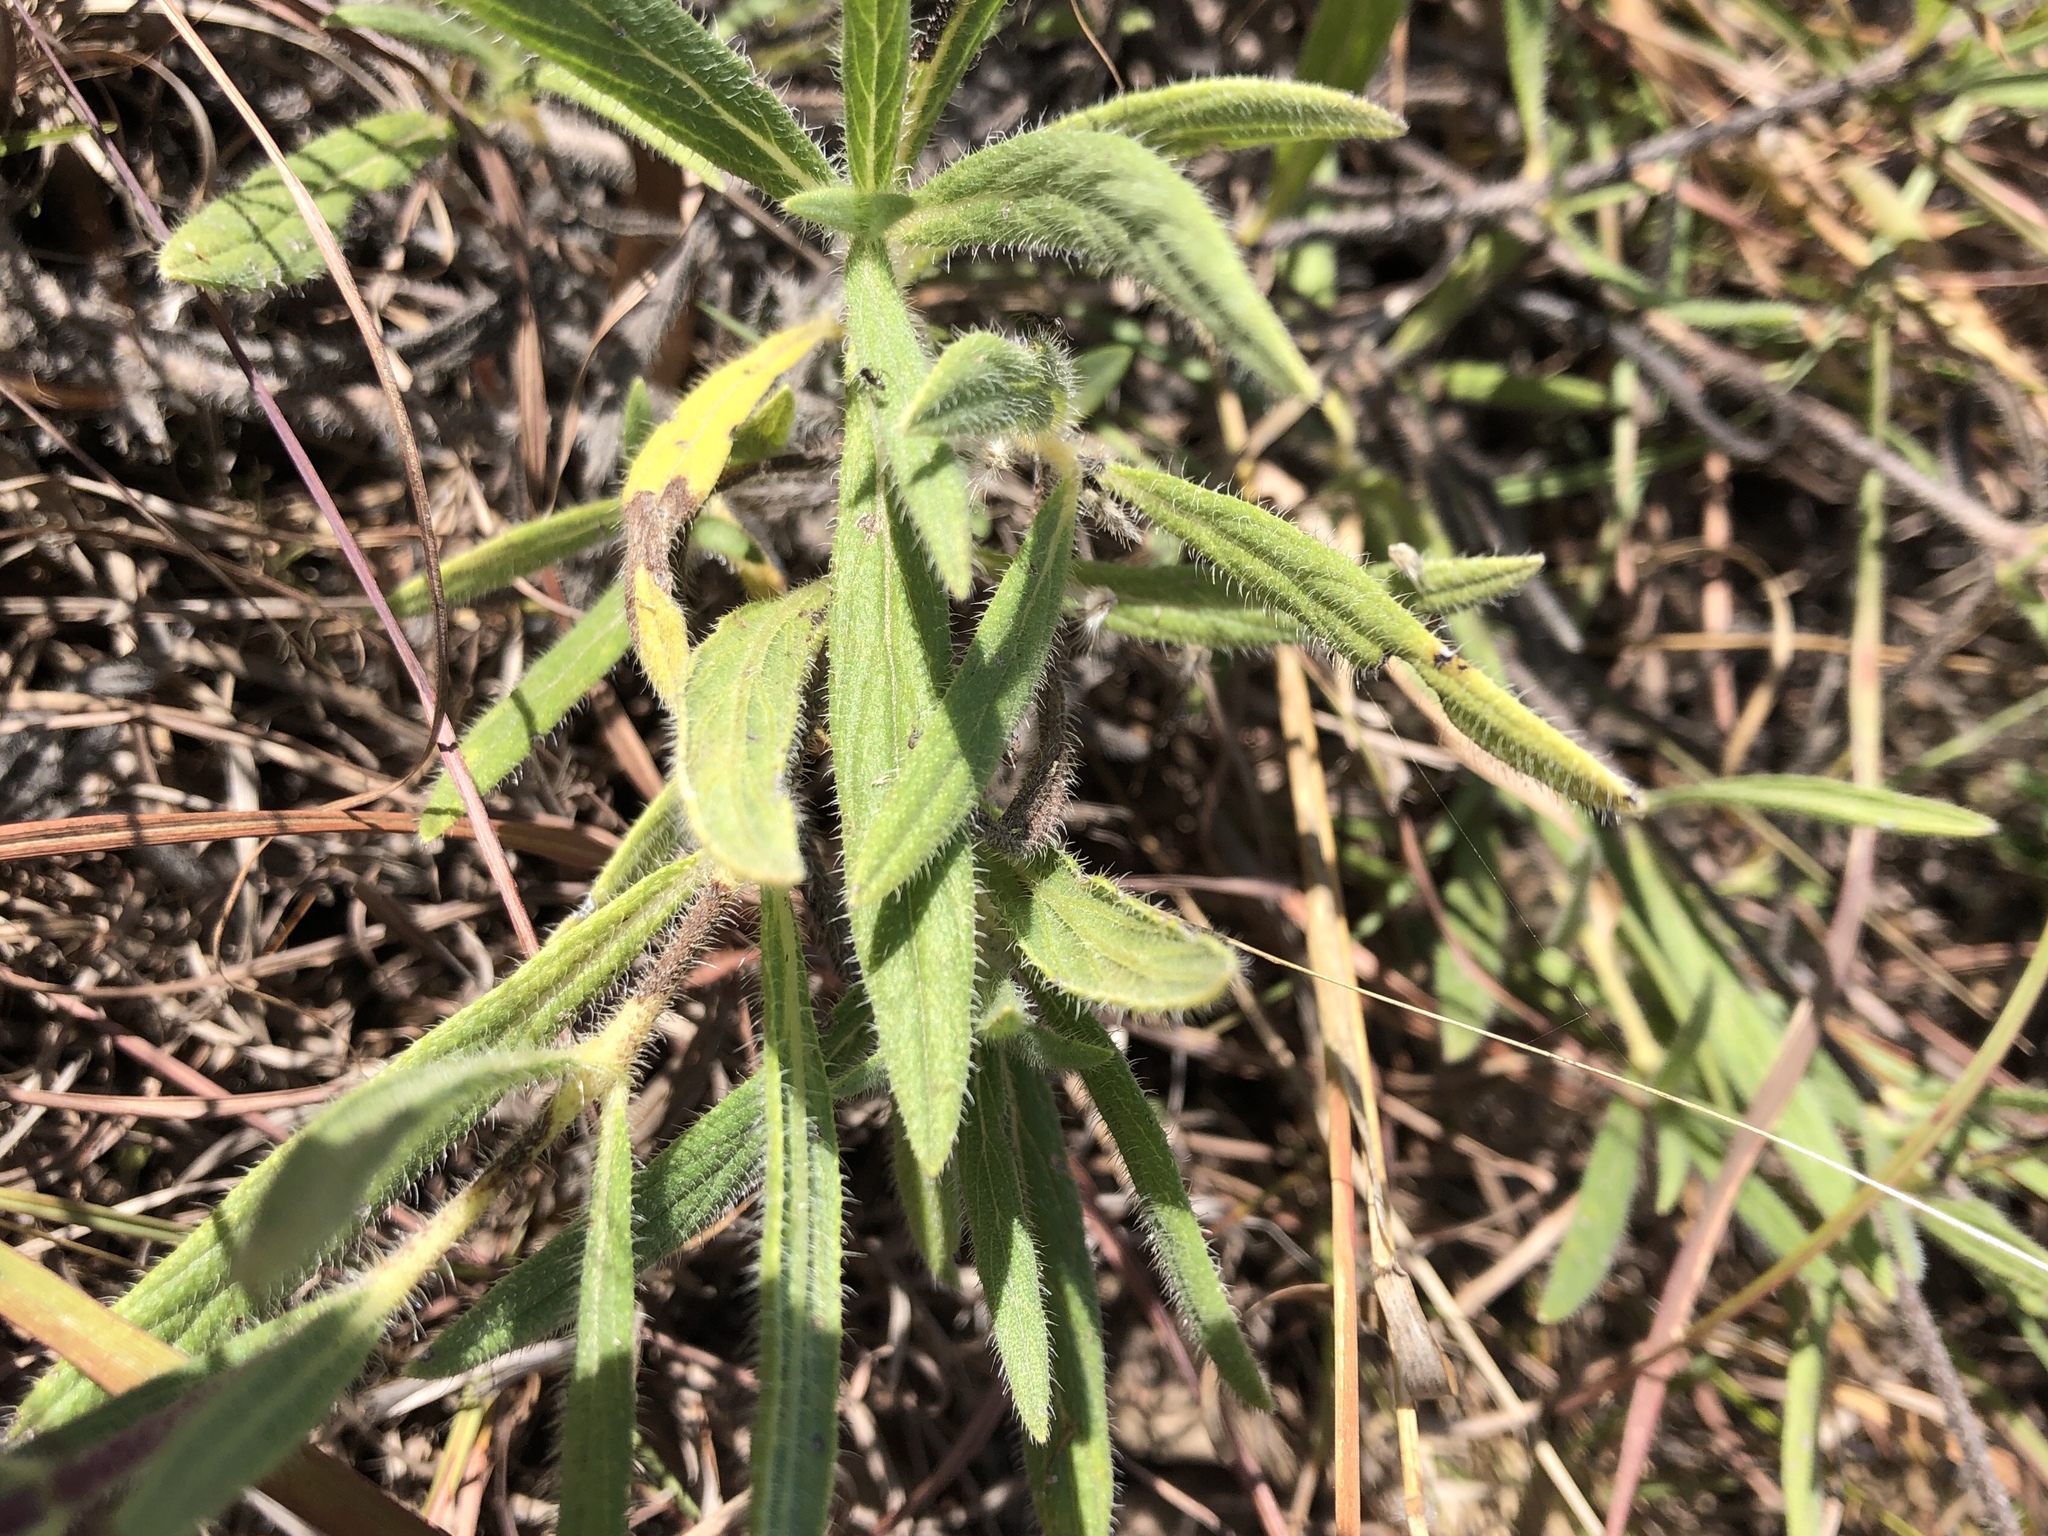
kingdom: Plantae
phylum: Tracheophyta
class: Magnoliopsida
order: Boraginales
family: Boraginaceae
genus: Trichodesma
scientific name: Trichodesma zeylanicum
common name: Camelbush
